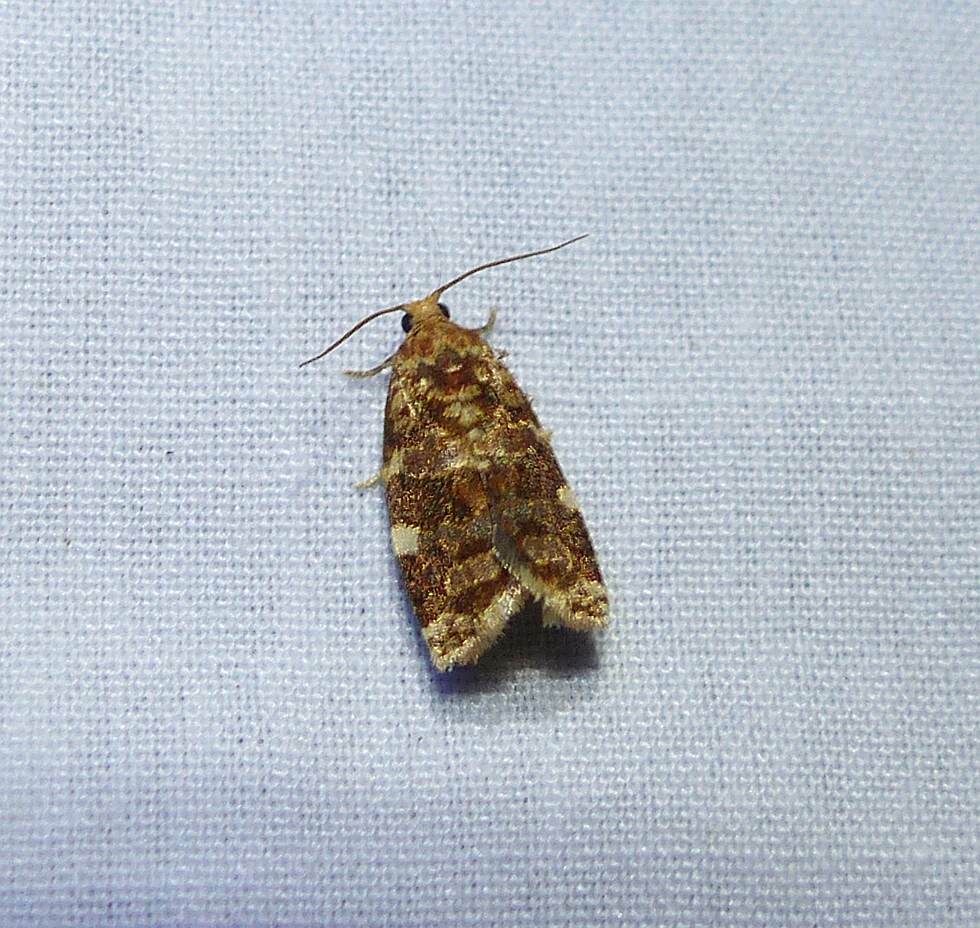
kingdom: Animalia
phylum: Arthropoda
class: Insecta
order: Lepidoptera
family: Tortricidae
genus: Archips
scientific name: Archips argyrospila
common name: Fruit-tree leafroller moth
